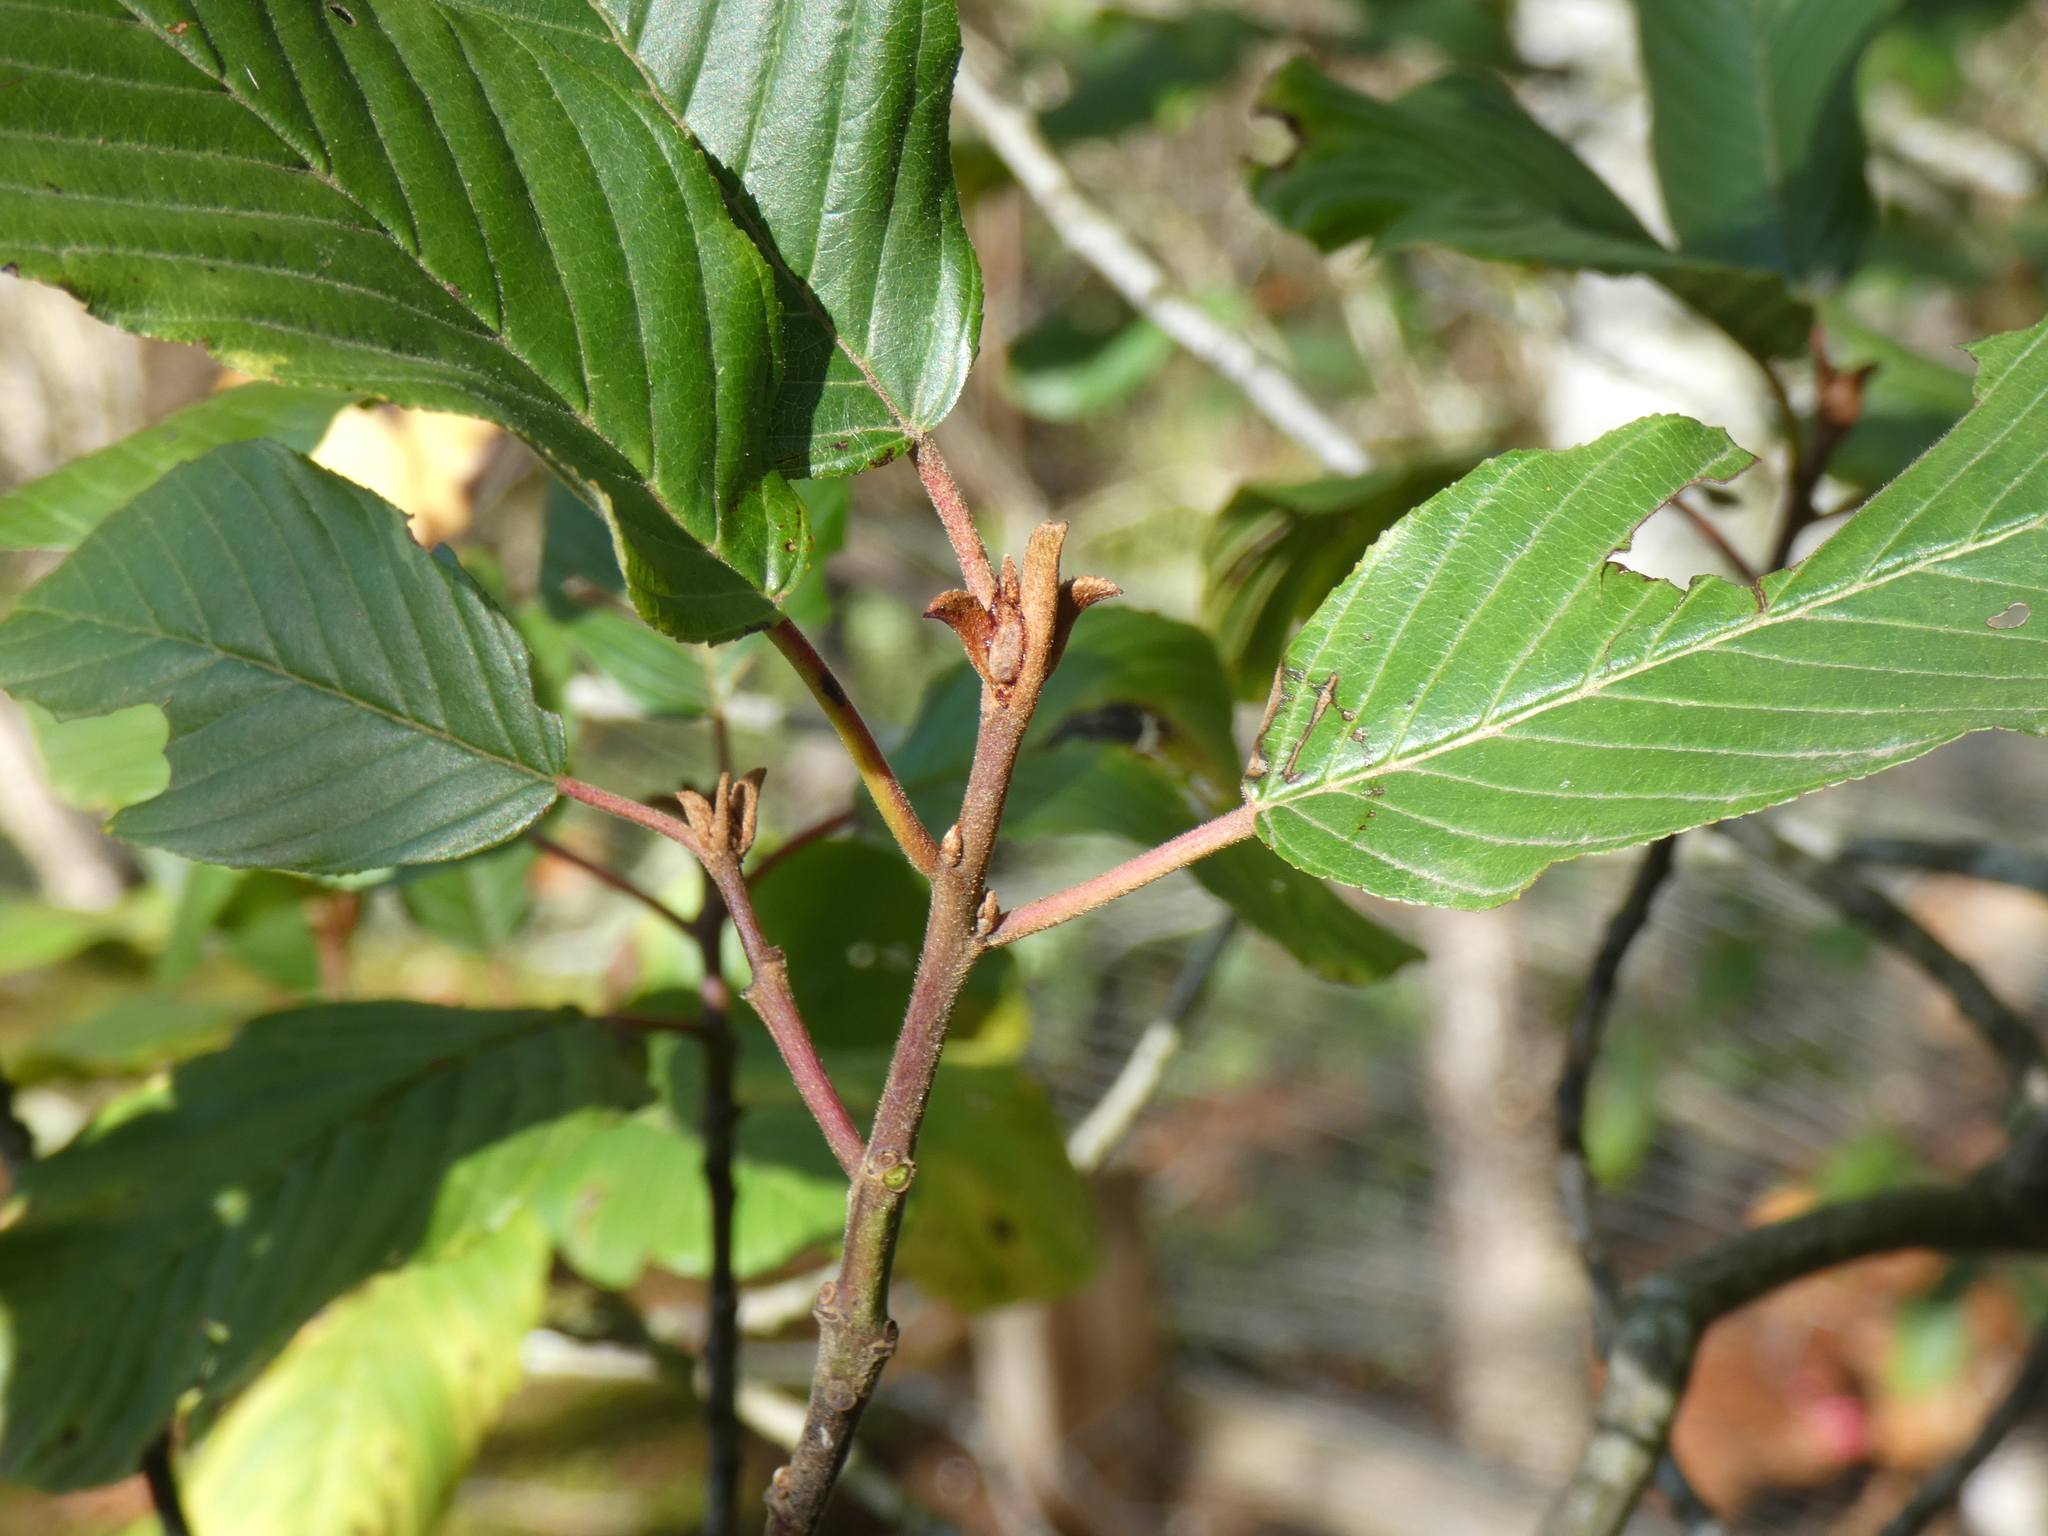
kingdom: Plantae
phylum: Tracheophyta
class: Magnoliopsida
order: Rosales
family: Rhamnaceae
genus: Frangula
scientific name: Frangula purshiana
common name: Cascara buckthorn
